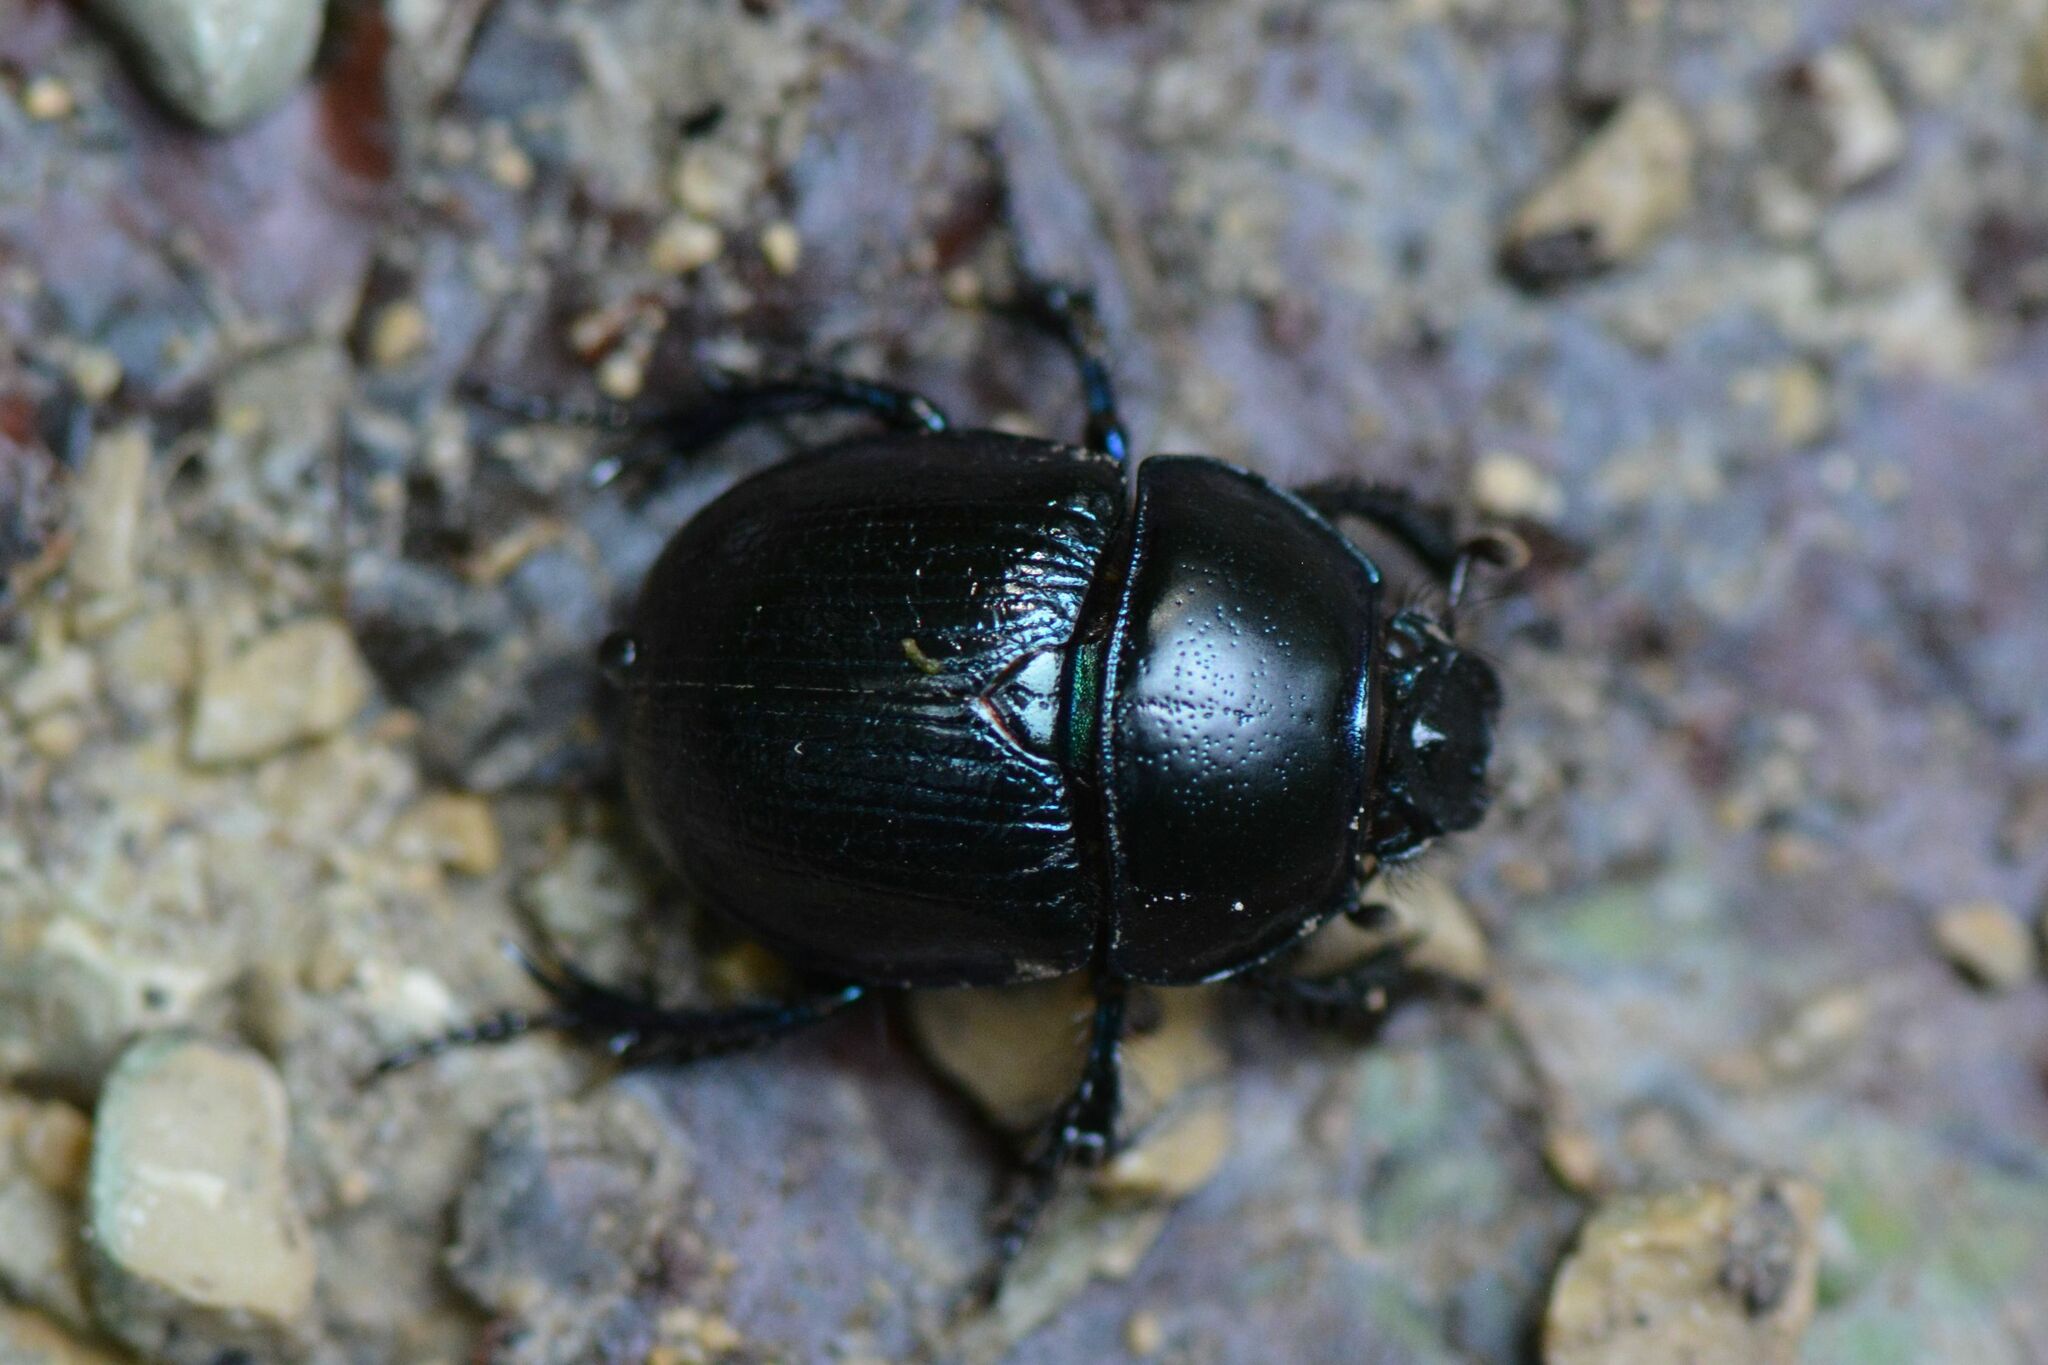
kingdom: Animalia
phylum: Arthropoda
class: Insecta
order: Coleoptera
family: Geotrupidae
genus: Anoplotrupes
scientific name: Anoplotrupes stercorosus
